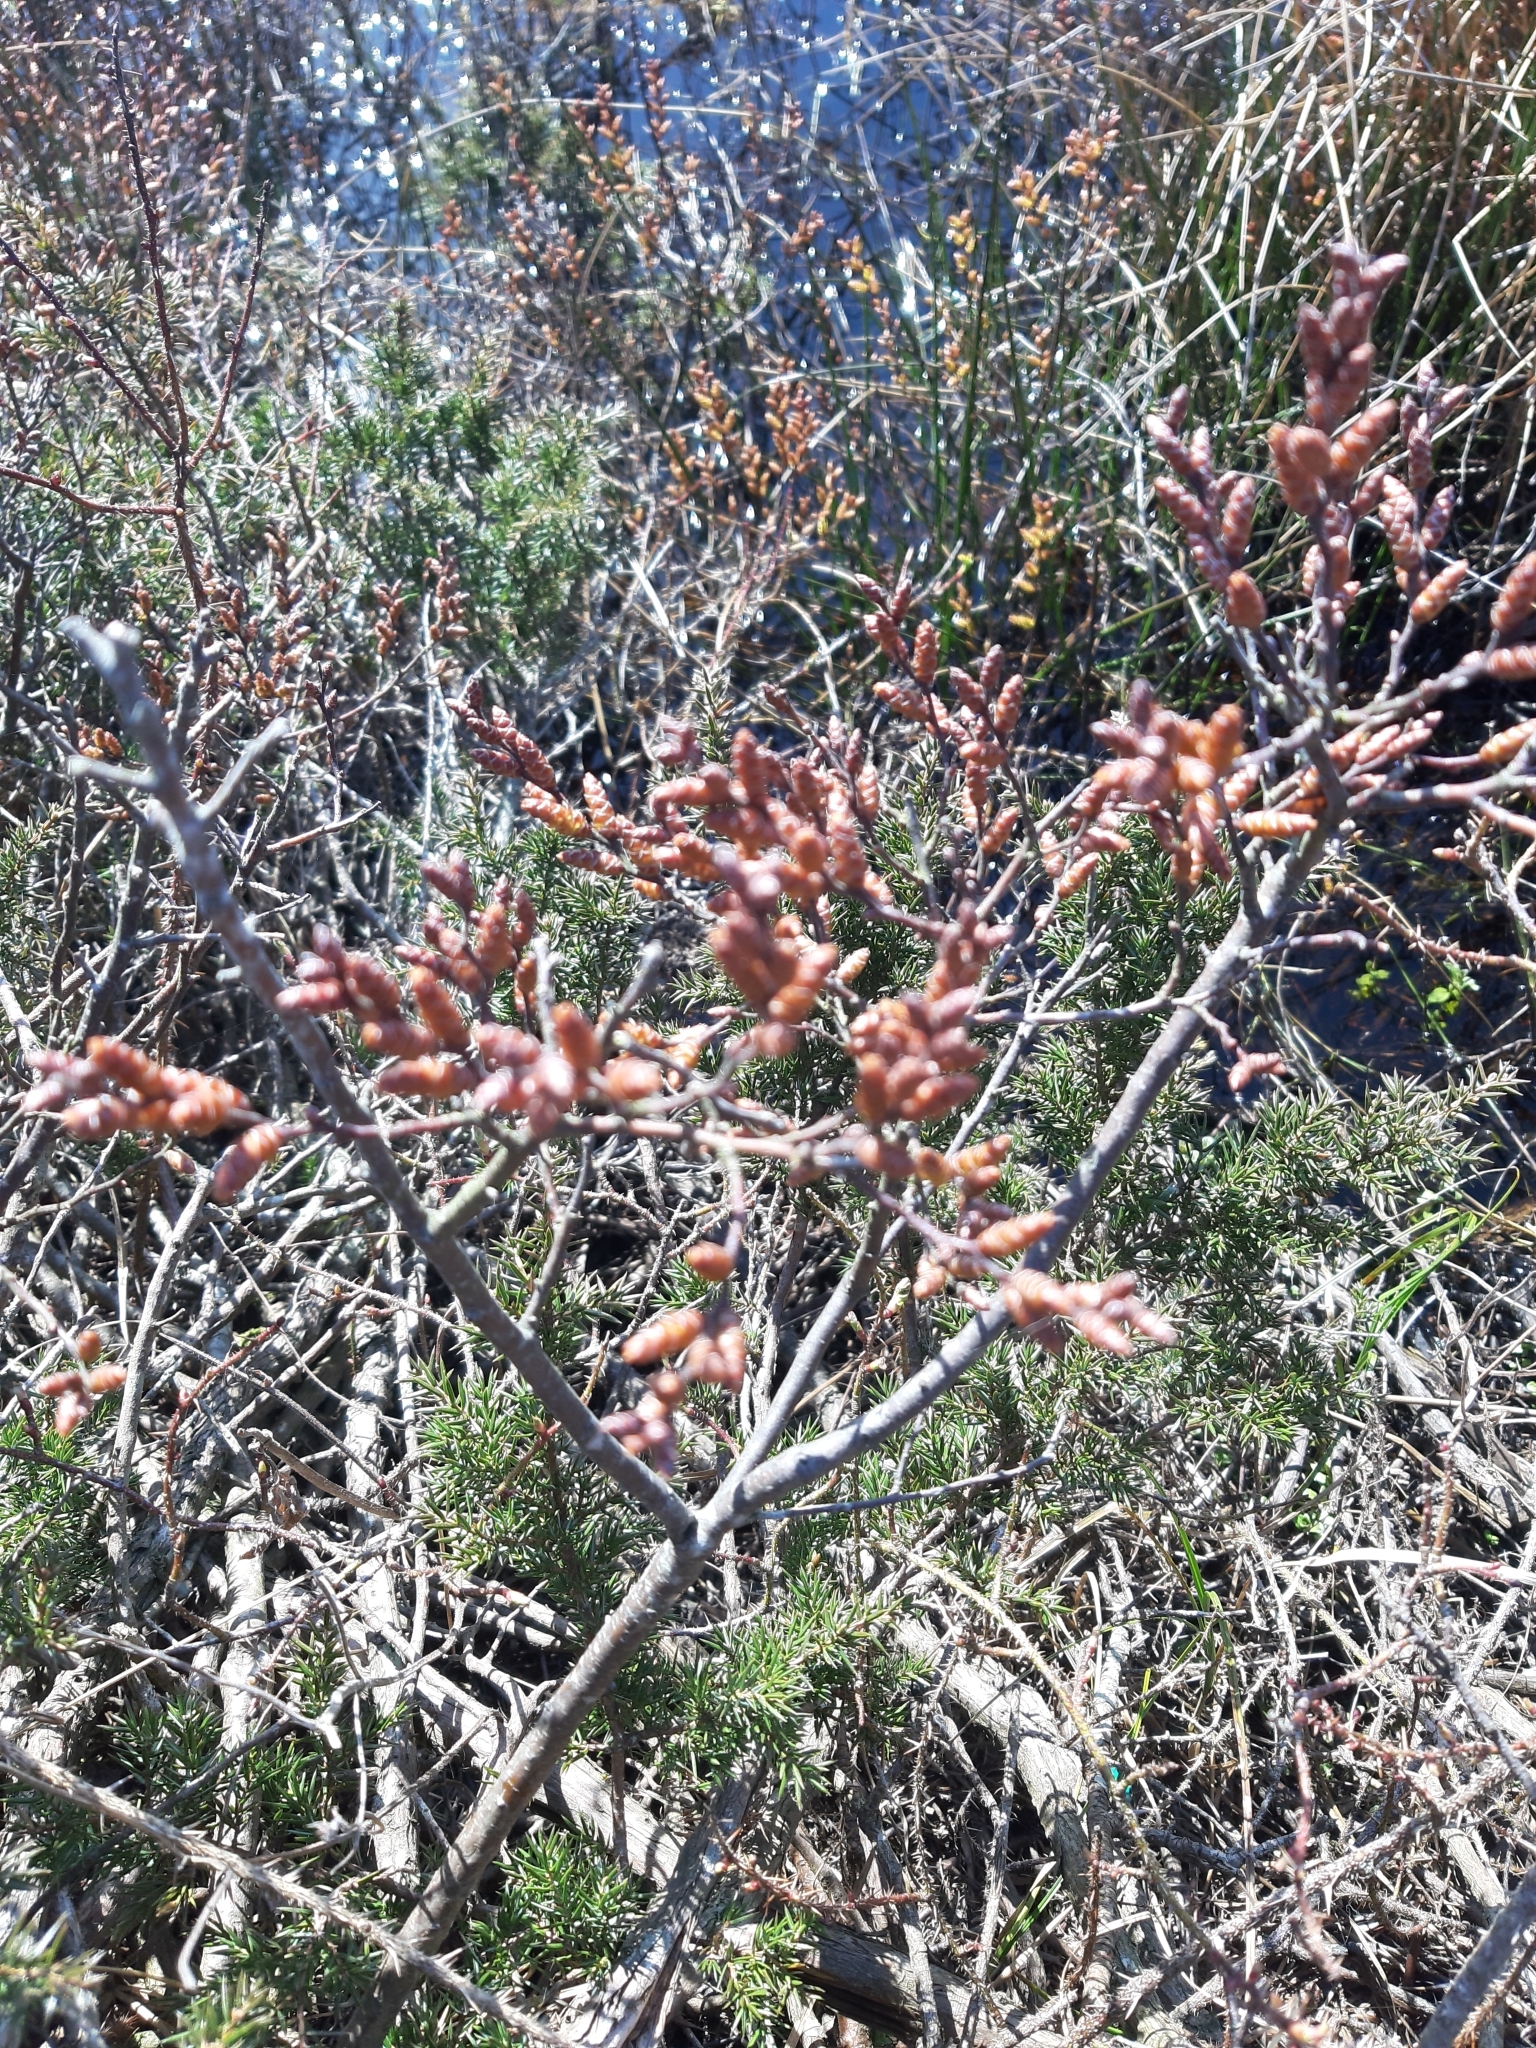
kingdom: Plantae
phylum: Tracheophyta
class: Magnoliopsida
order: Fagales
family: Myricaceae
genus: Myrica
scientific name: Myrica gale
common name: Sweet gale
